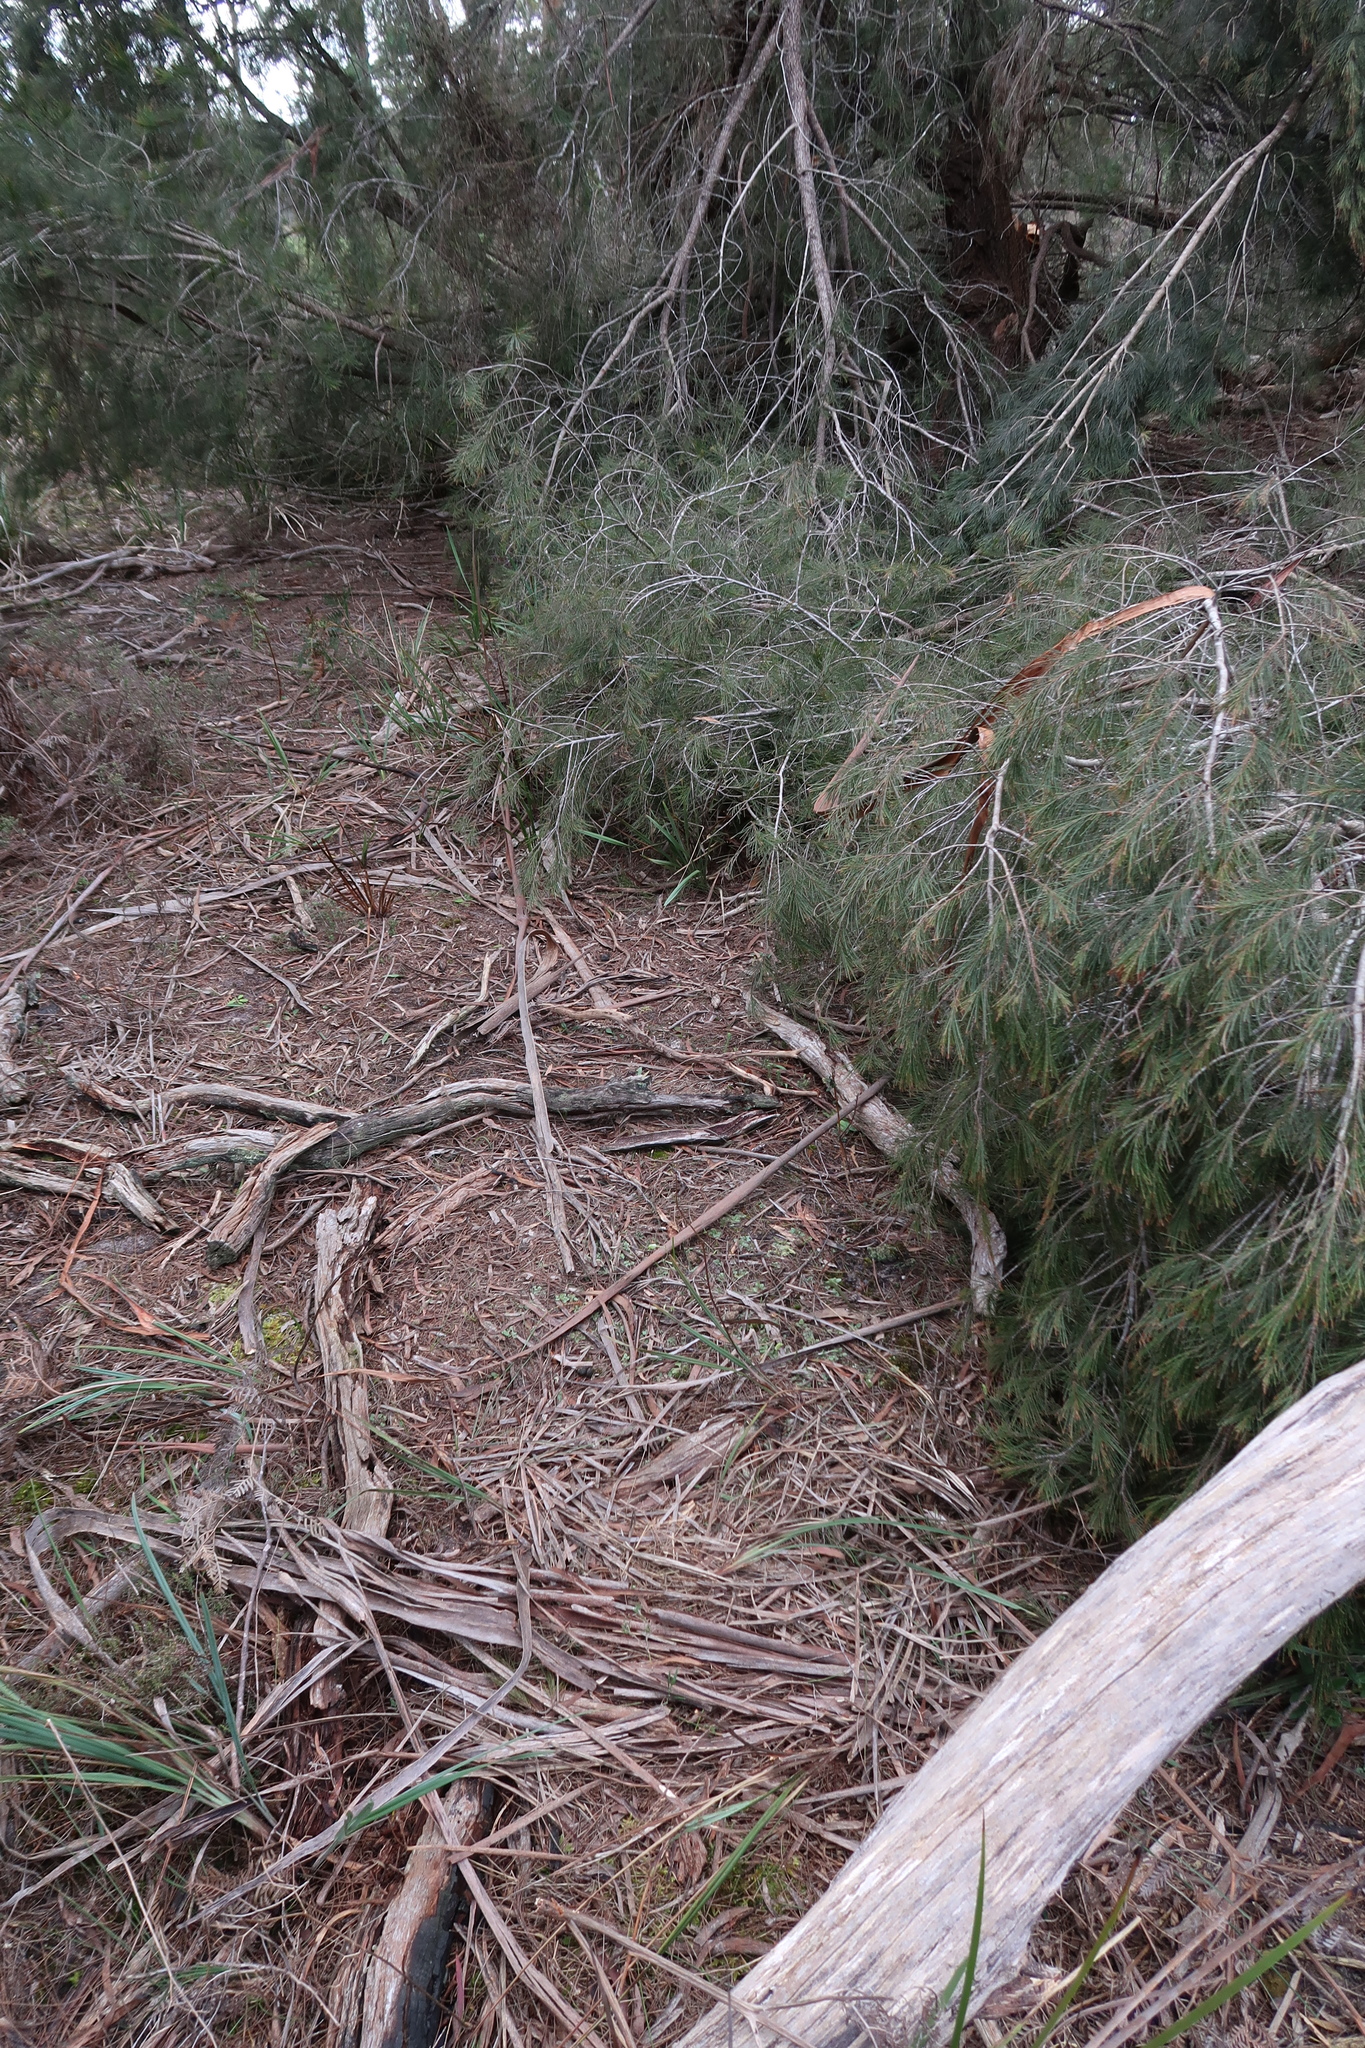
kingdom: Plantae
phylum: Tracheophyta
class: Liliopsida
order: Asparagales
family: Orchidaceae
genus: Pterostylis
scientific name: Pterostylis nana
